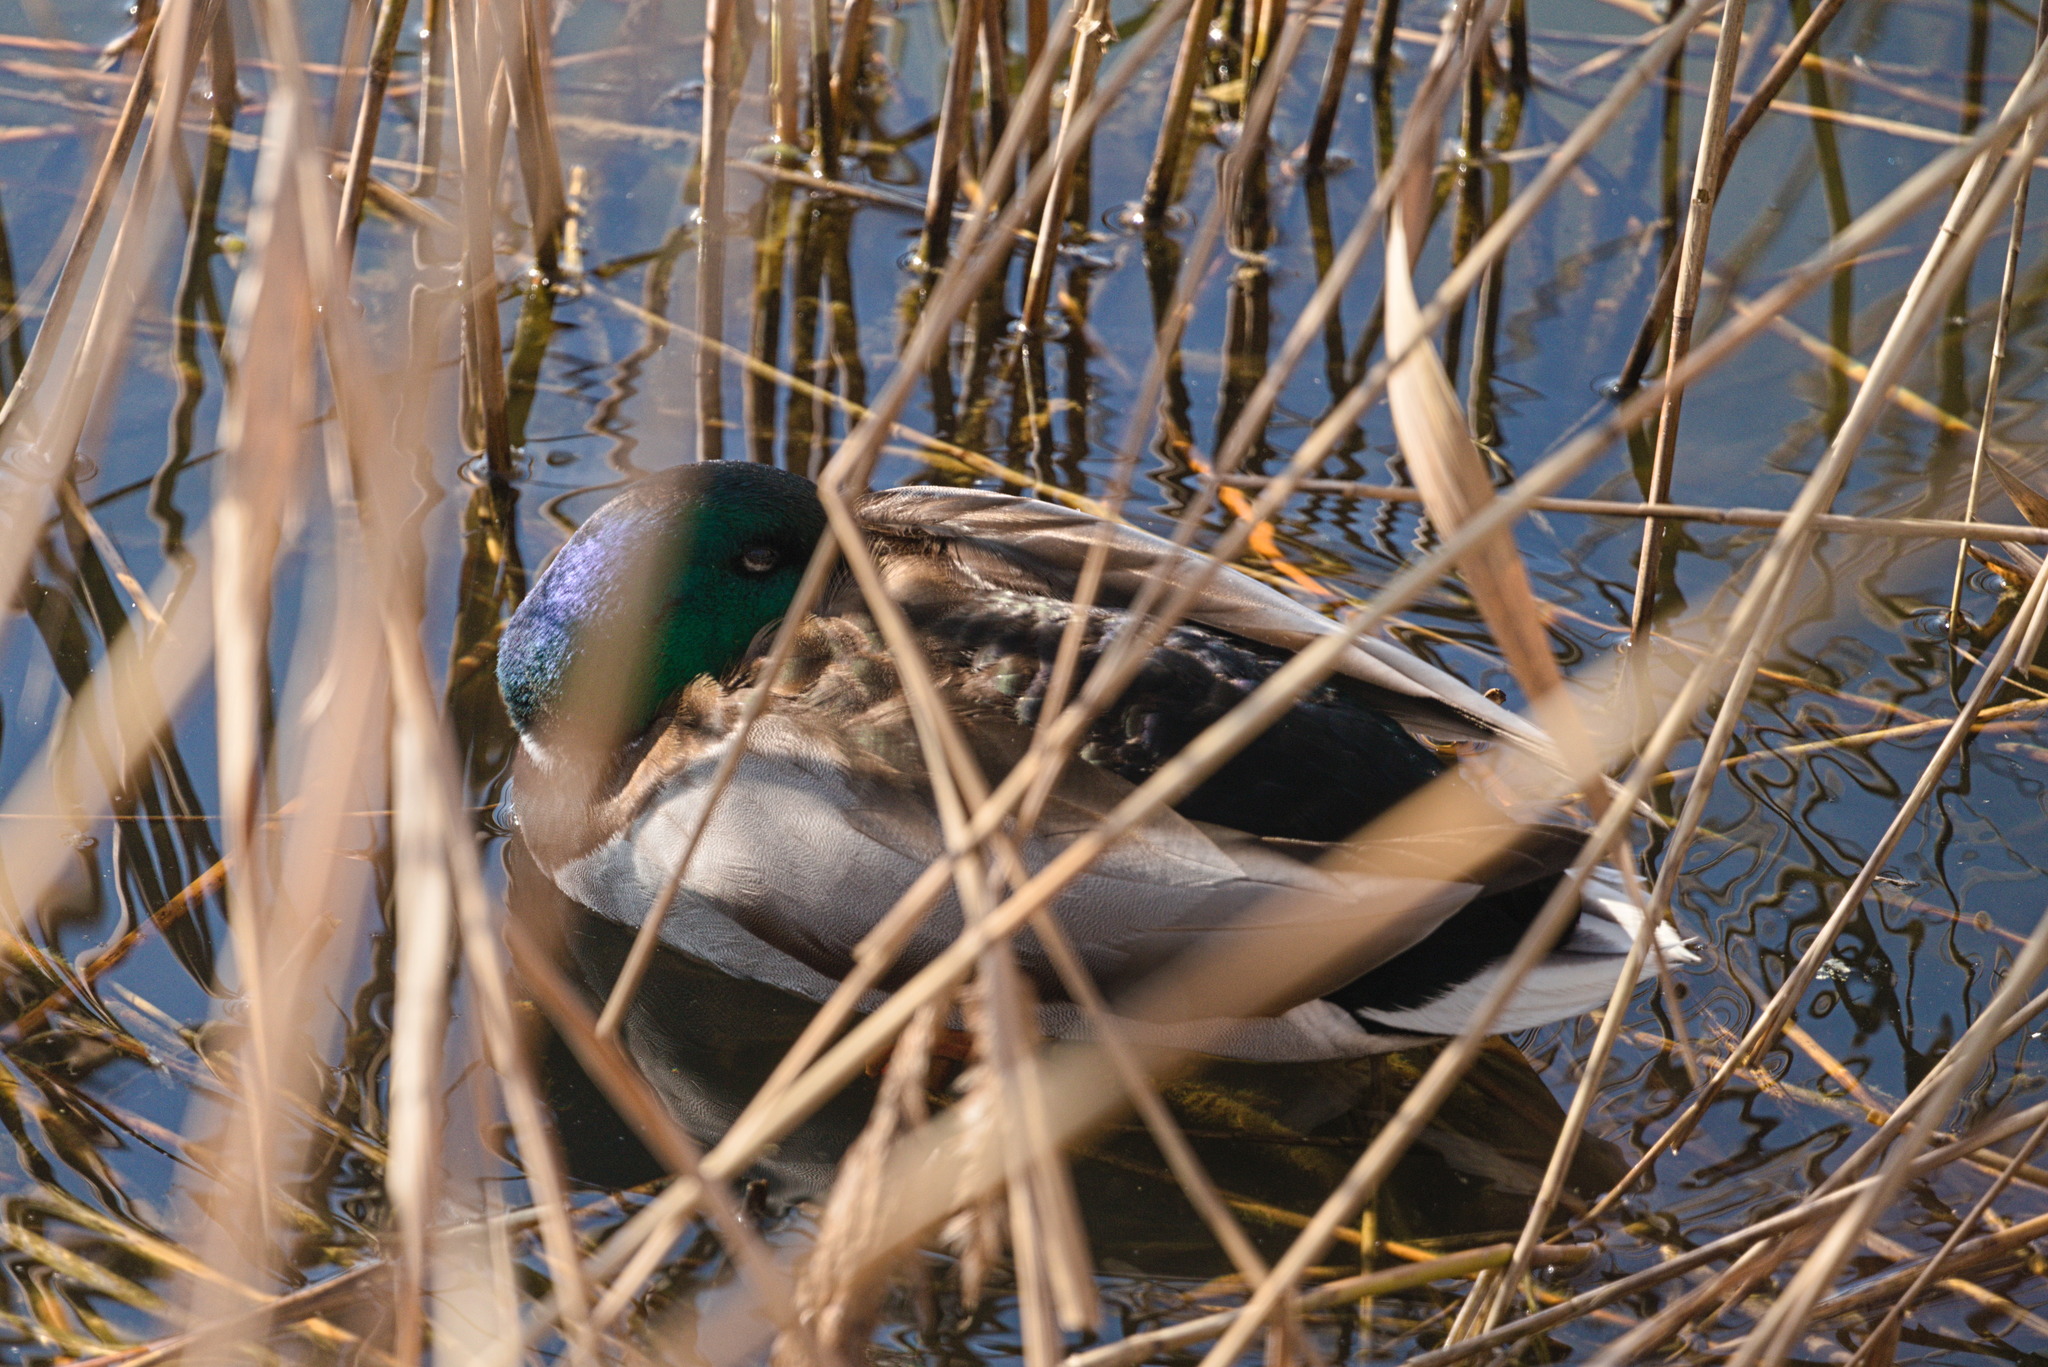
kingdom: Animalia
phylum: Chordata
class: Aves
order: Anseriformes
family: Anatidae
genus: Anas
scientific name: Anas platyrhynchos
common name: Mallard
